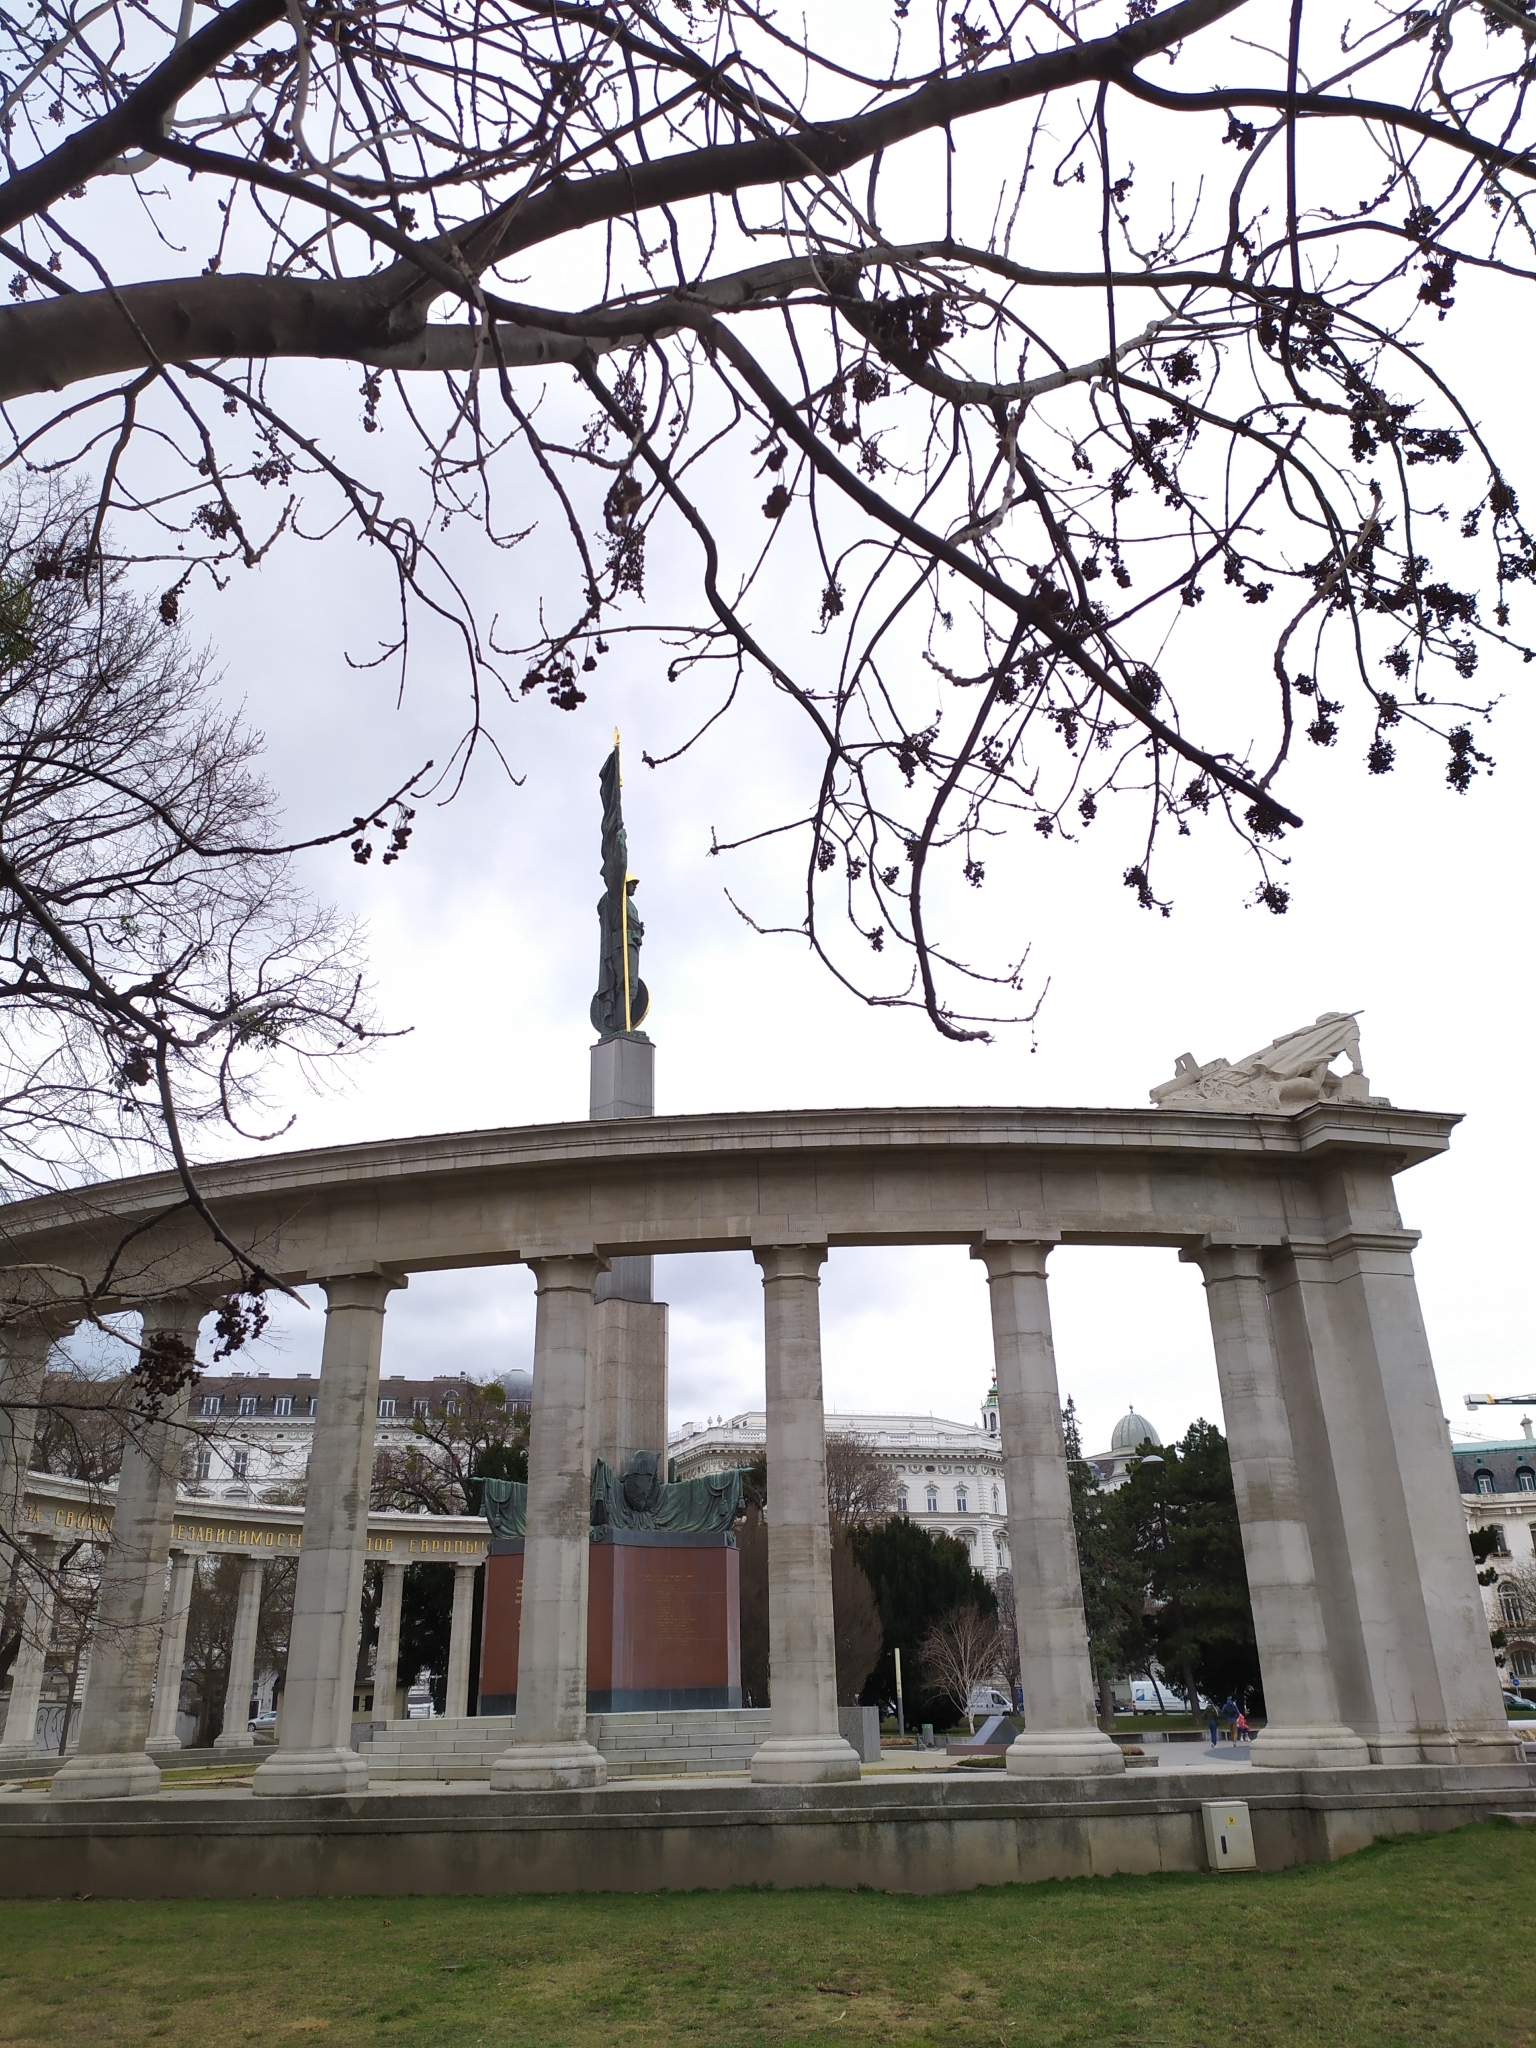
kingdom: Animalia
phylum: Arthropoda
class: Arachnida
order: Trombidiformes
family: Eriophyidae
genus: Aceria
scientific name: Aceria fraxinivora
